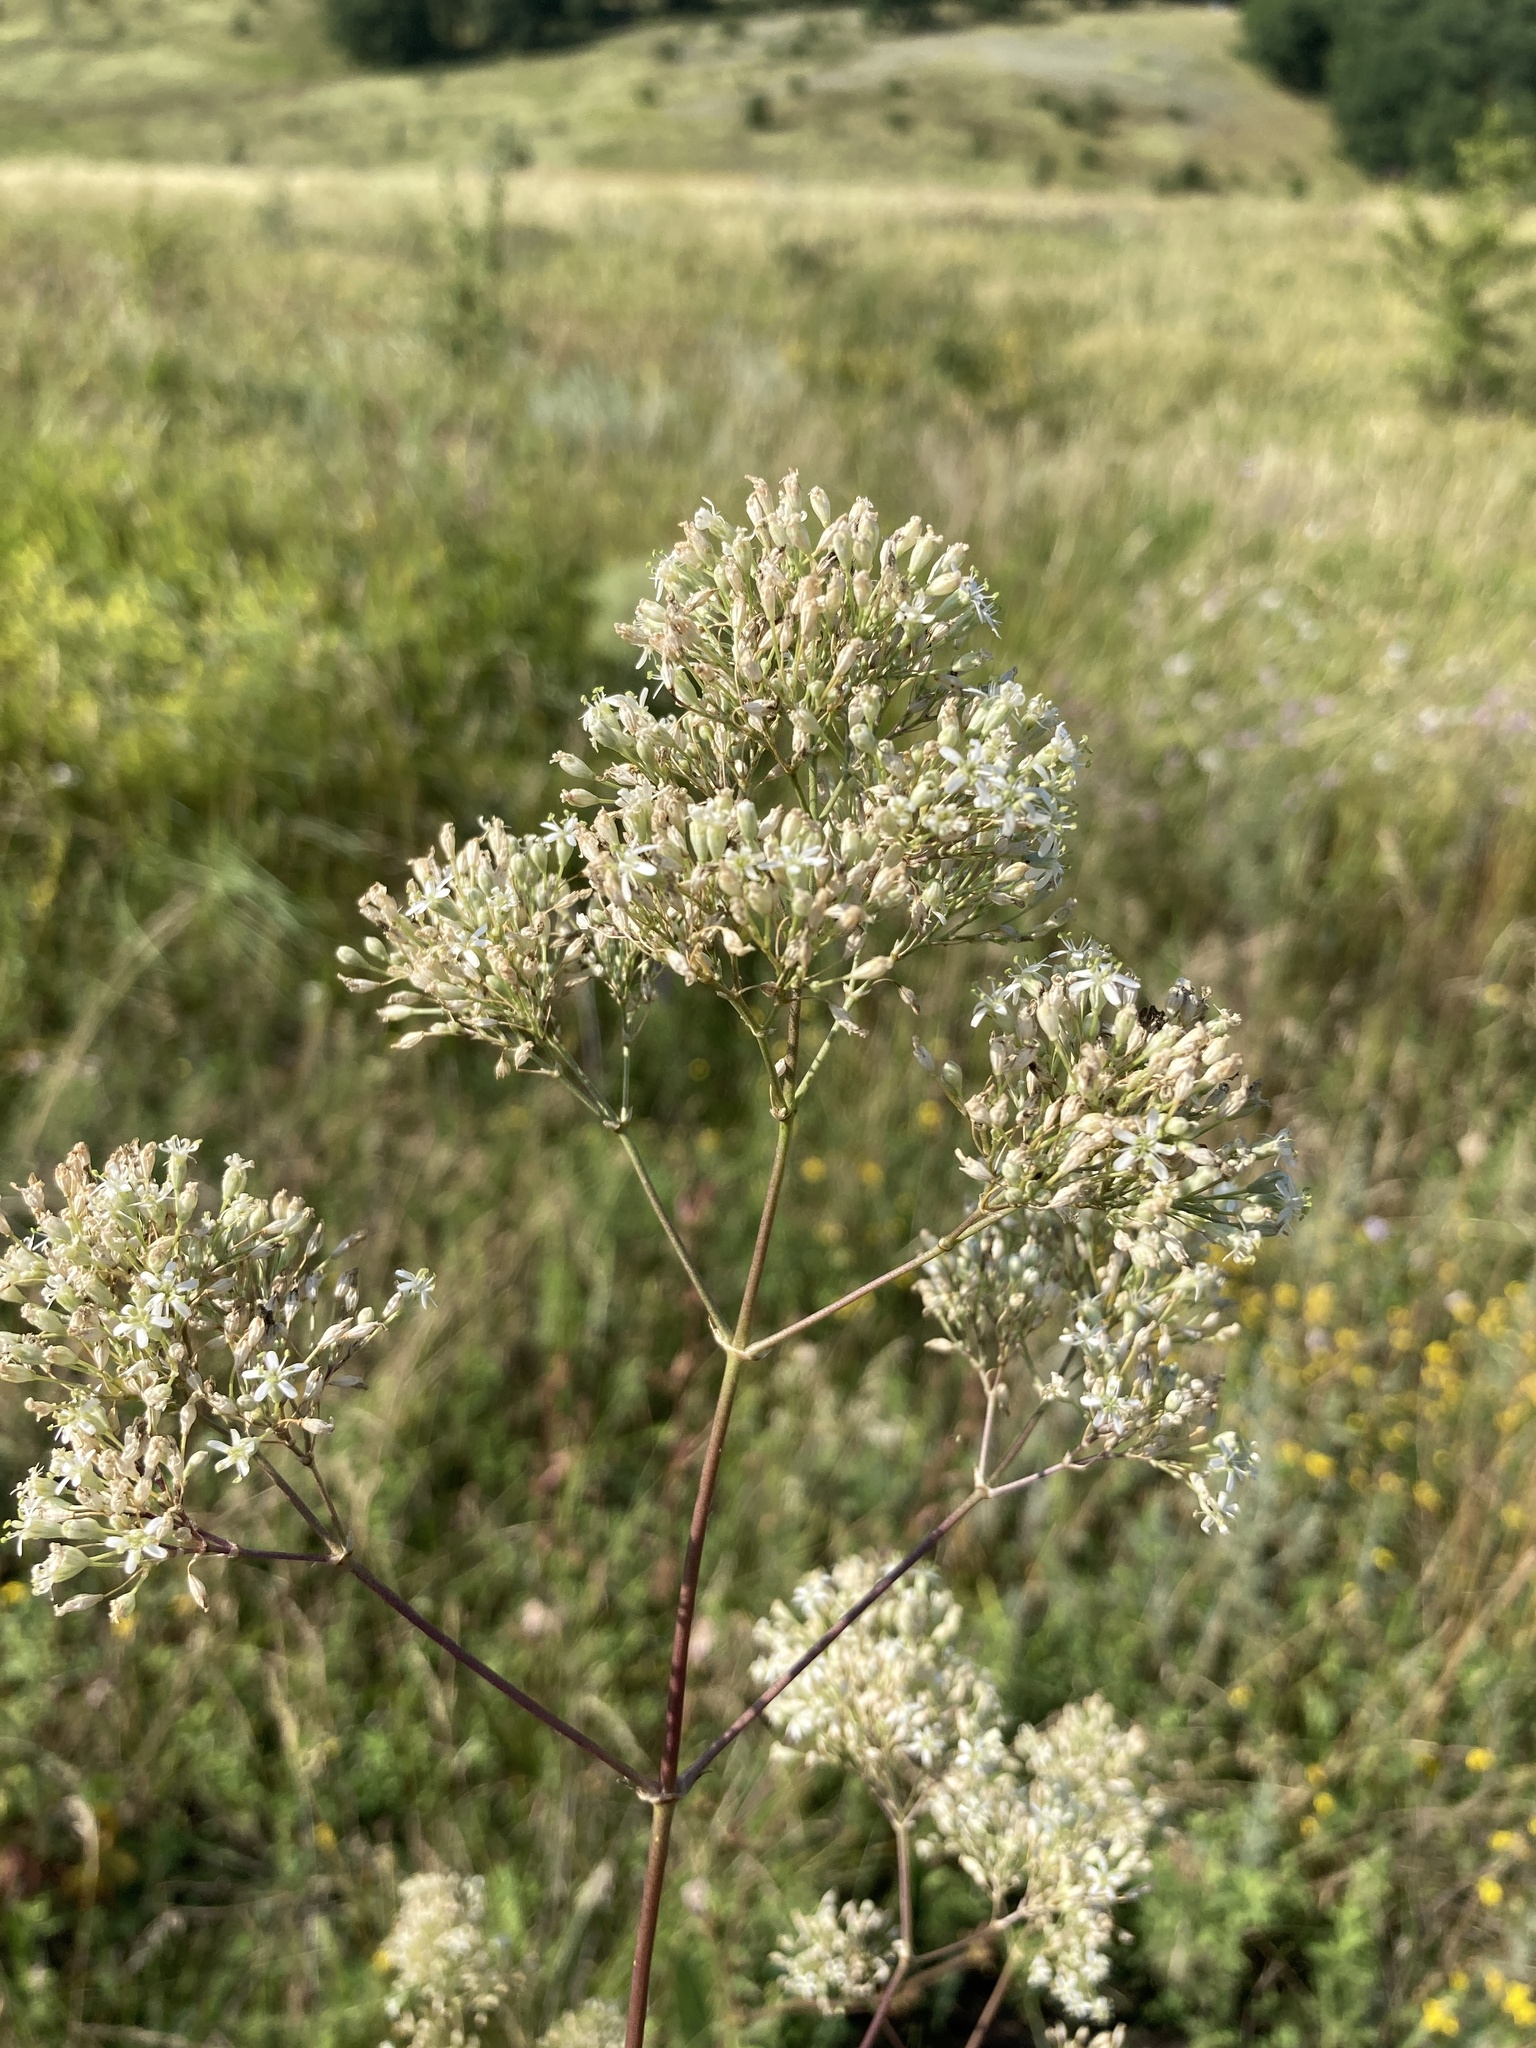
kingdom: Plantae
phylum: Tracheophyta
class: Magnoliopsida
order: Caryophyllales
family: Caryophyllaceae
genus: Silene
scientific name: Silene wolgensis
